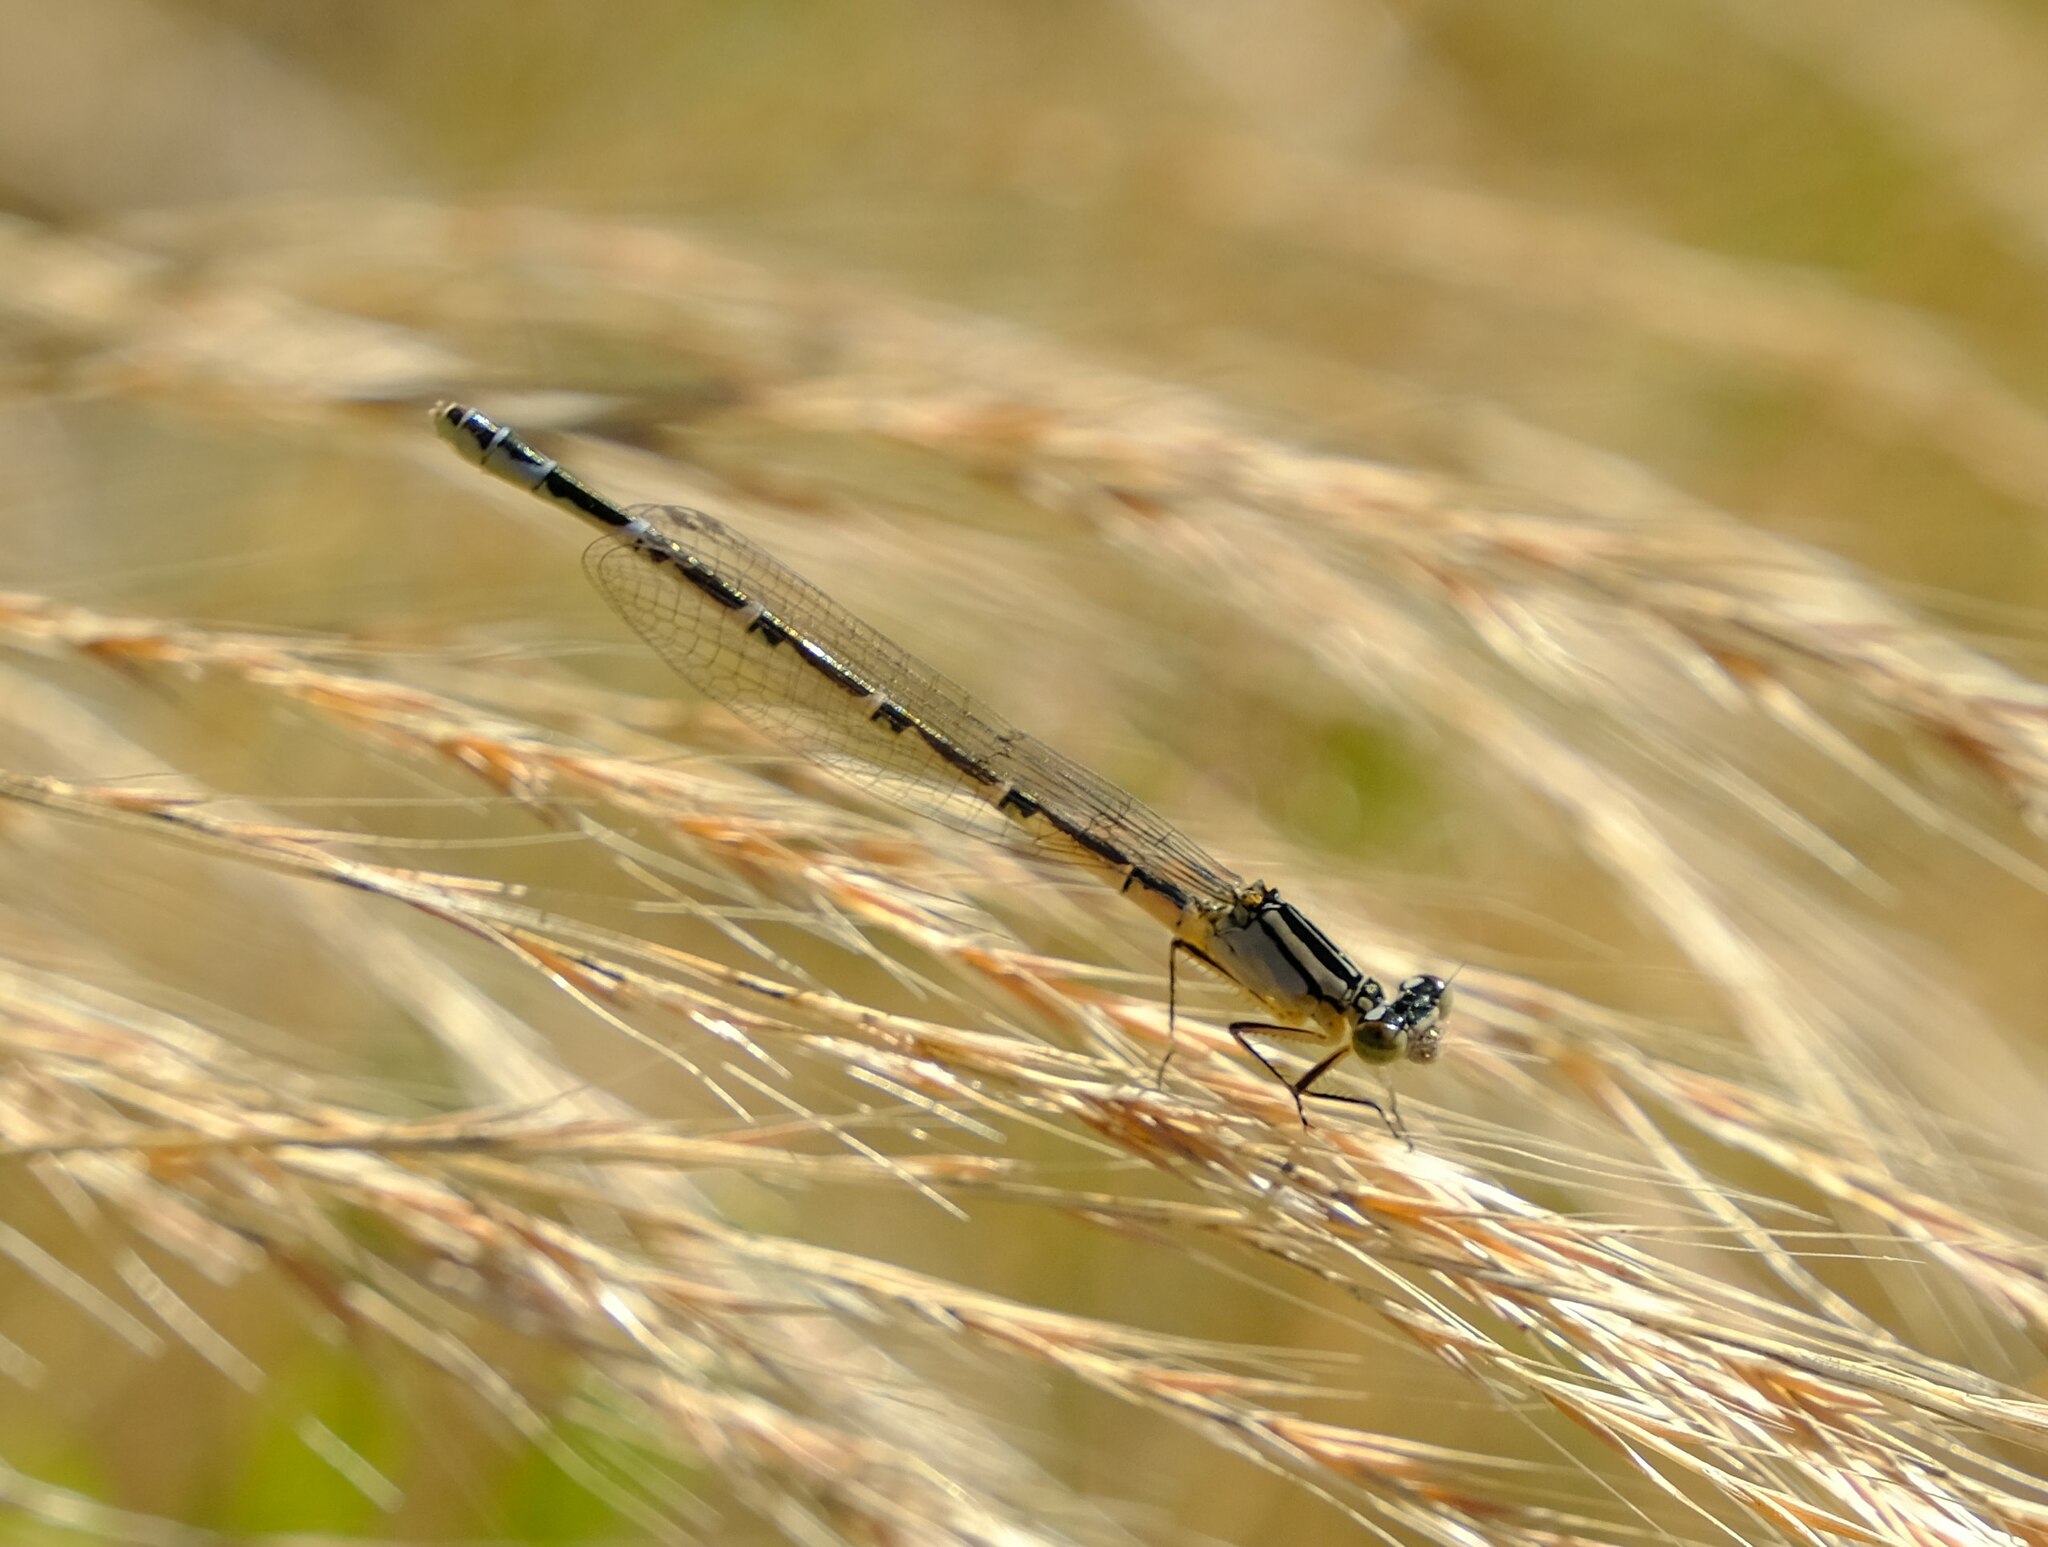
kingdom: Animalia
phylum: Arthropoda
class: Insecta
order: Odonata
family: Coenagrionidae
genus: Enallagma
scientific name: Enallagma cyathigerum
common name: Common blue damselfly
